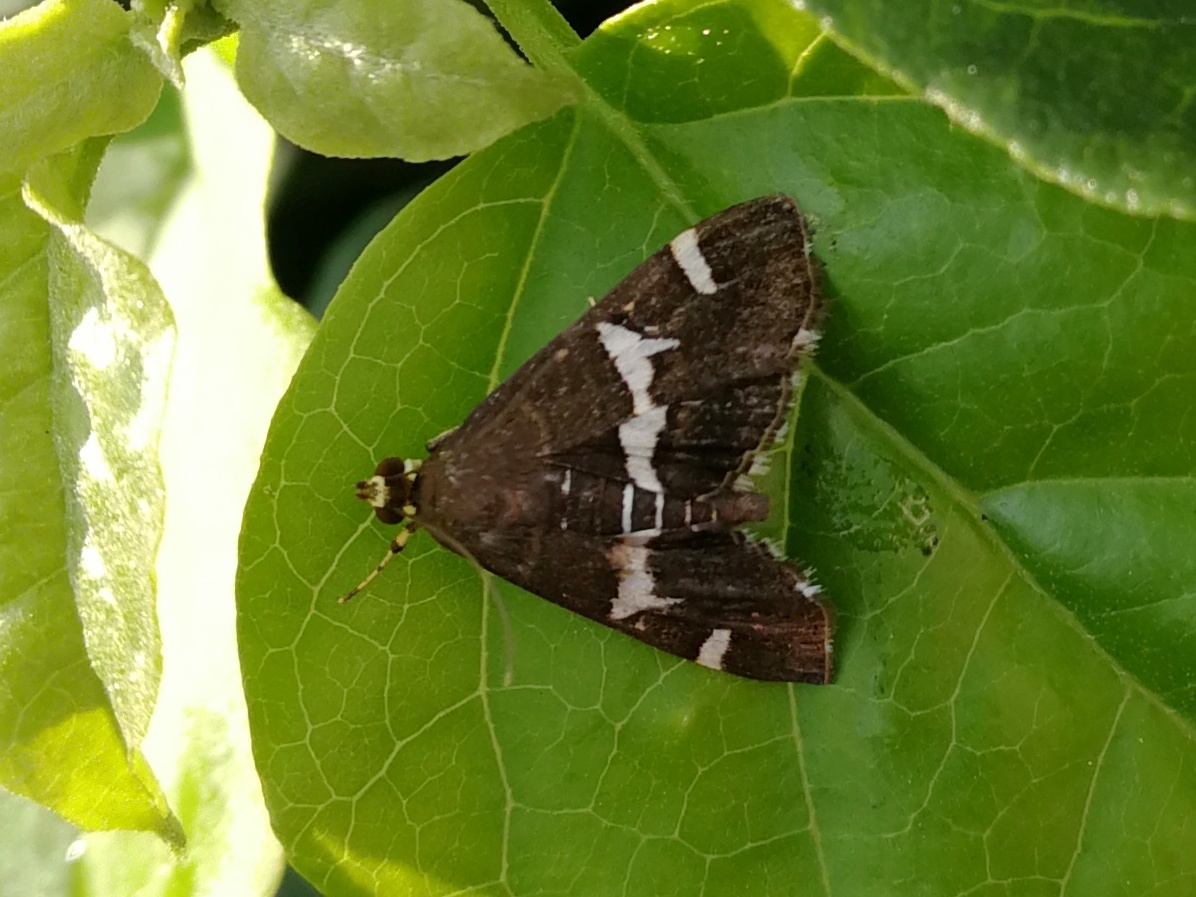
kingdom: Animalia
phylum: Arthropoda
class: Insecta
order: Lepidoptera
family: Crambidae
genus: Spoladea
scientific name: Spoladea recurvalis
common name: Beet webworm moth
